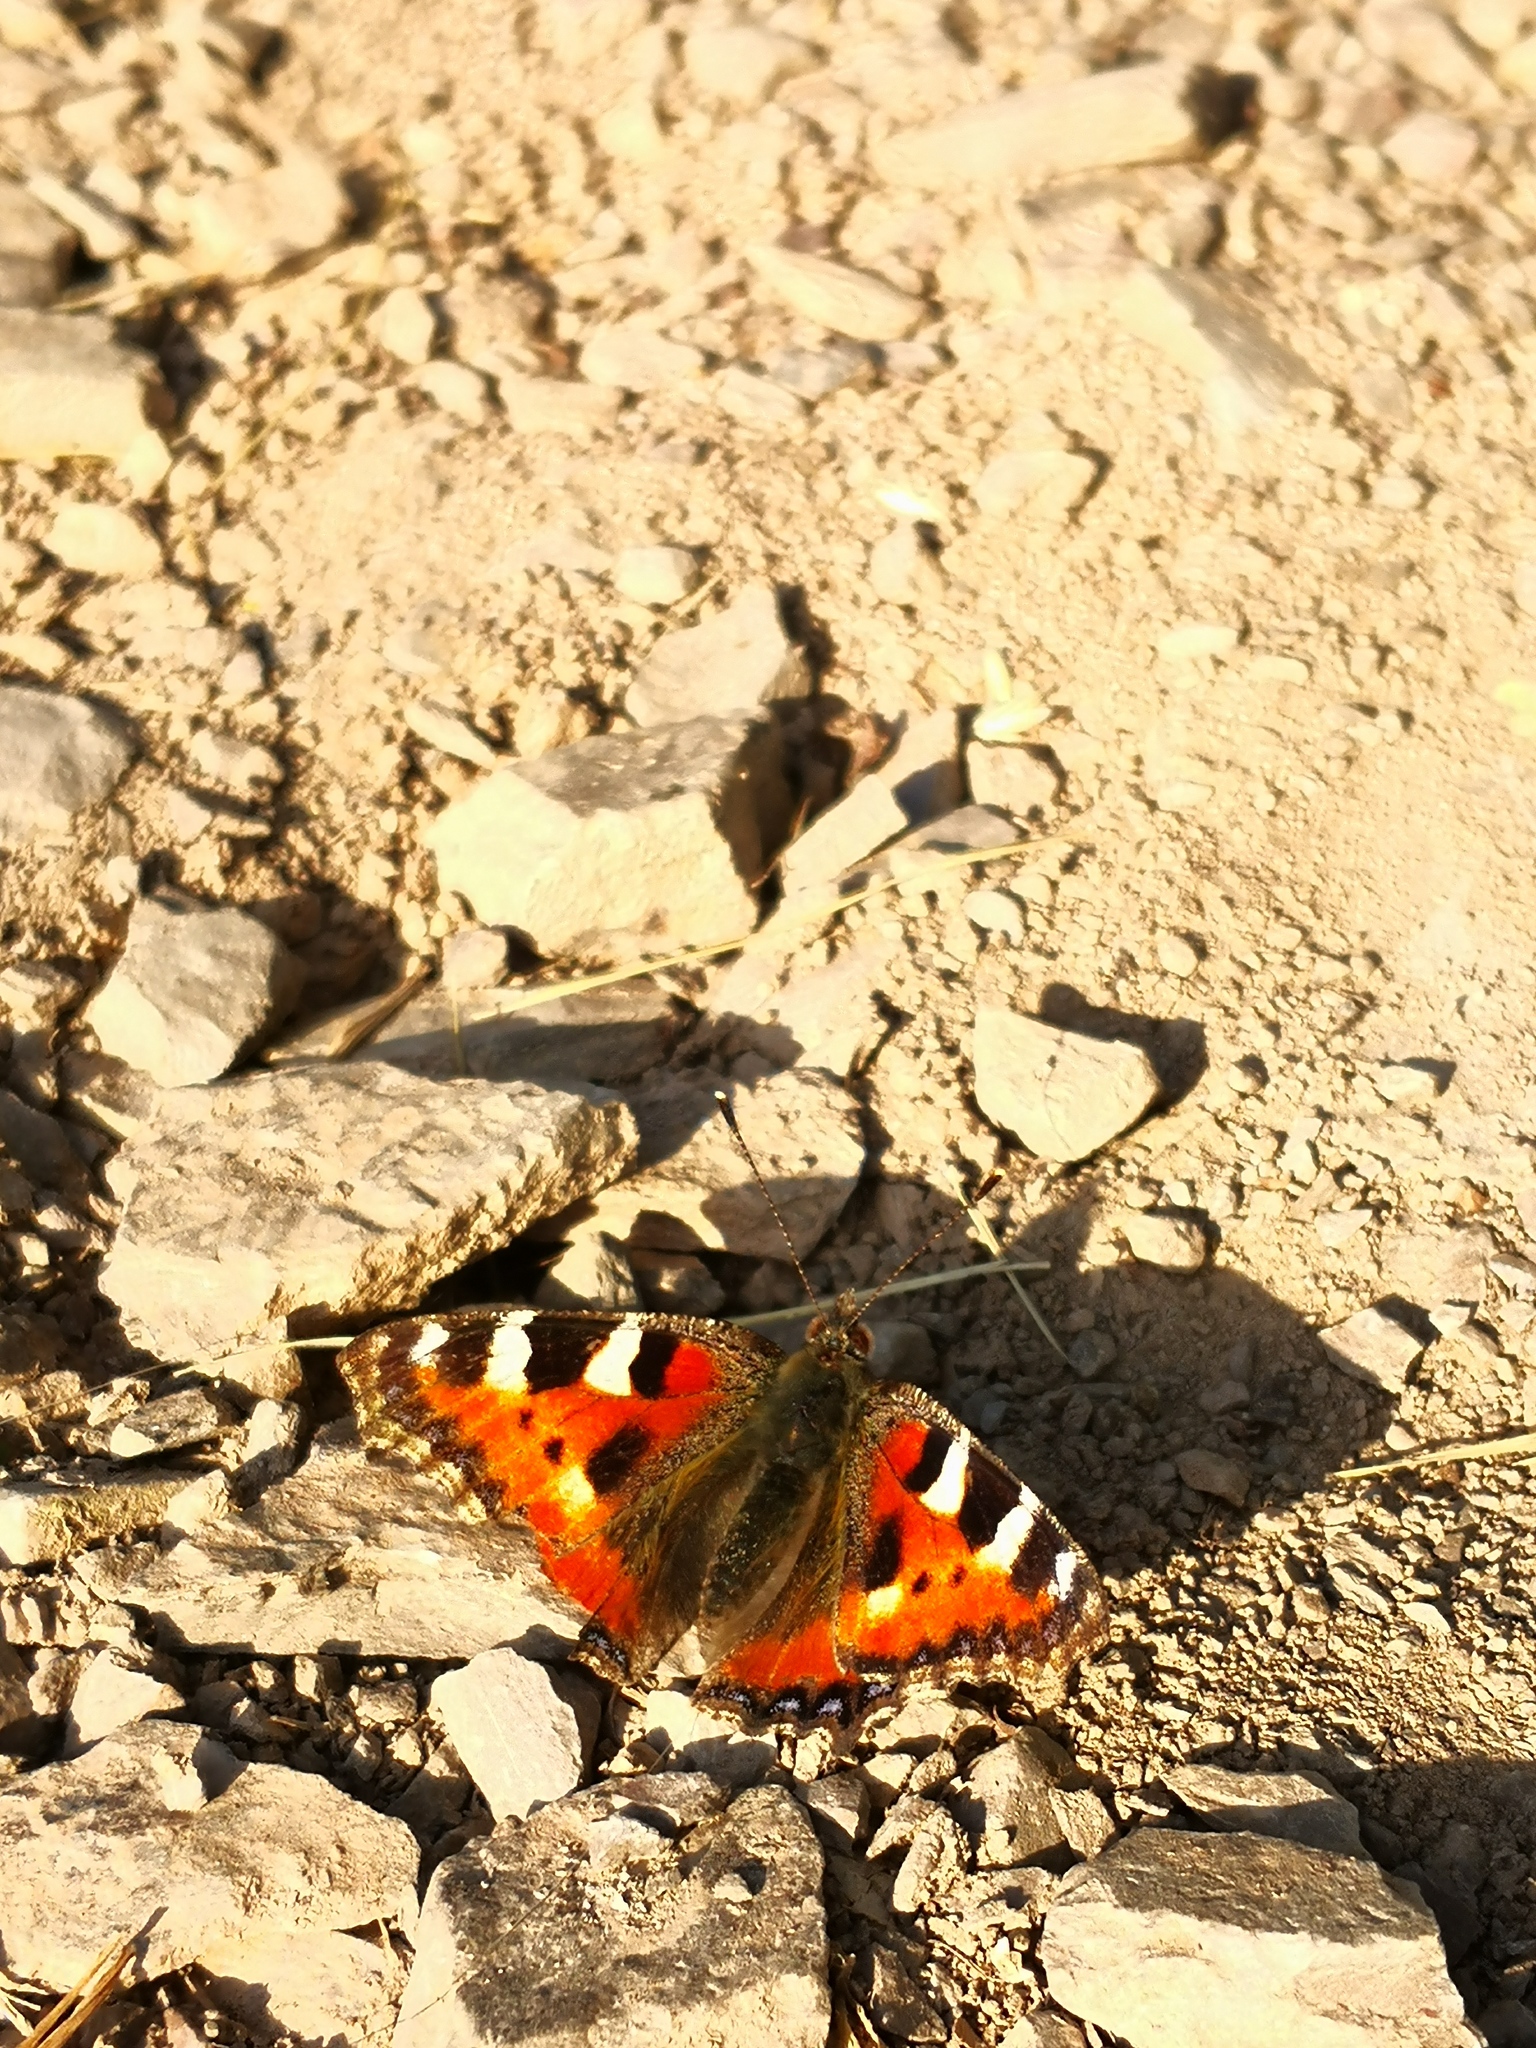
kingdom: Animalia
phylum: Arthropoda
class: Insecta
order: Lepidoptera
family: Nymphalidae
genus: Aglais
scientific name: Aglais urticae
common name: Small tortoiseshell
